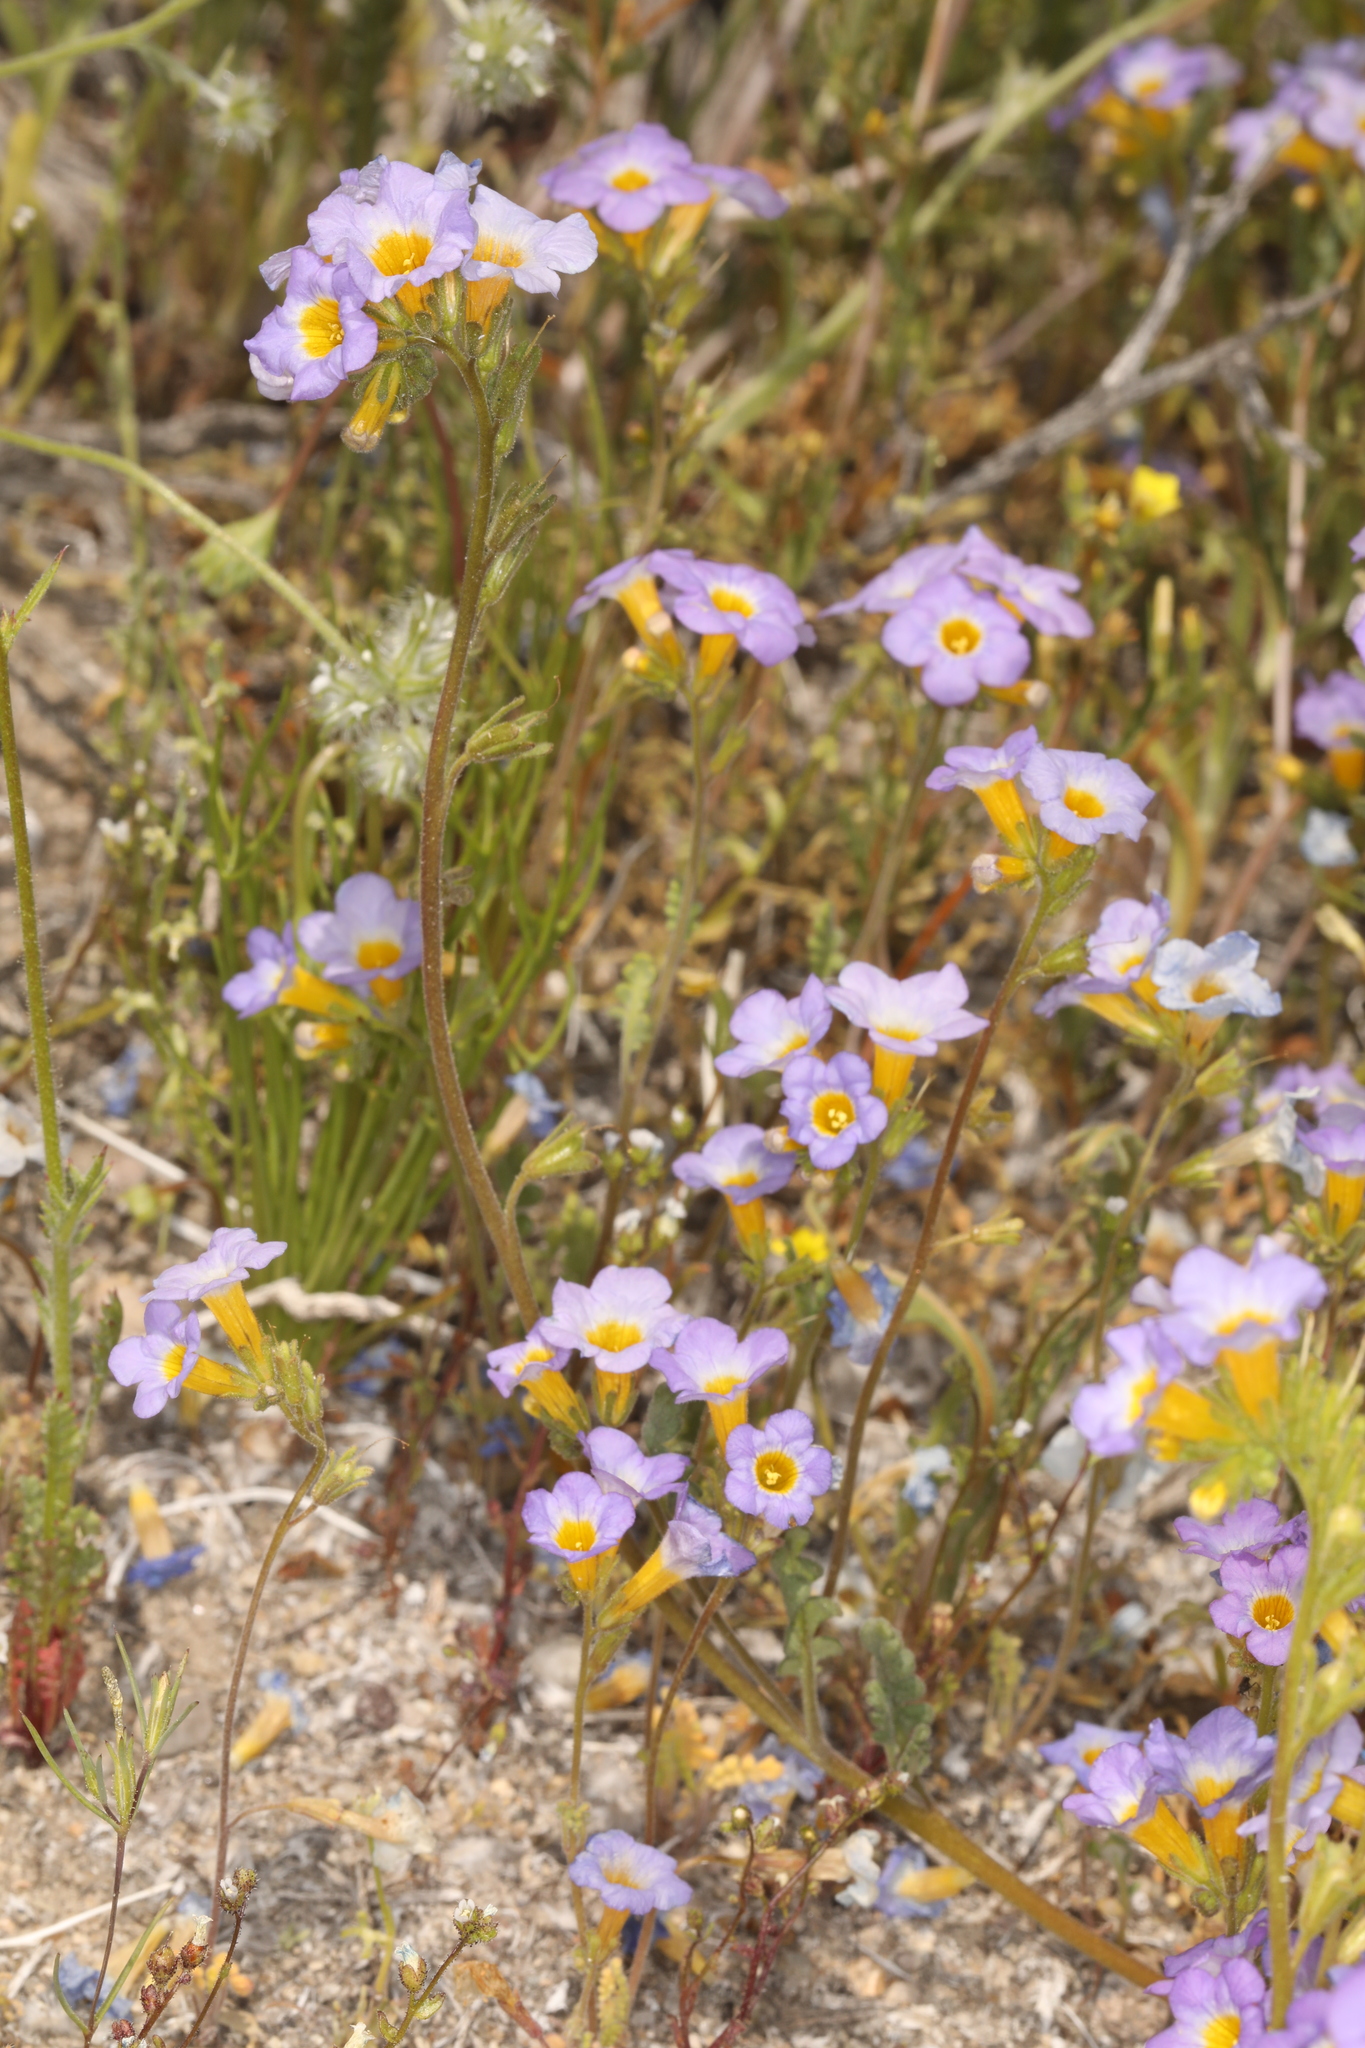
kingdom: Plantae
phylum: Tracheophyta
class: Magnoliopsida
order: Boraginales
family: Hydrophyllaceae
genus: Phacelia
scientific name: Phacelia fremontii
